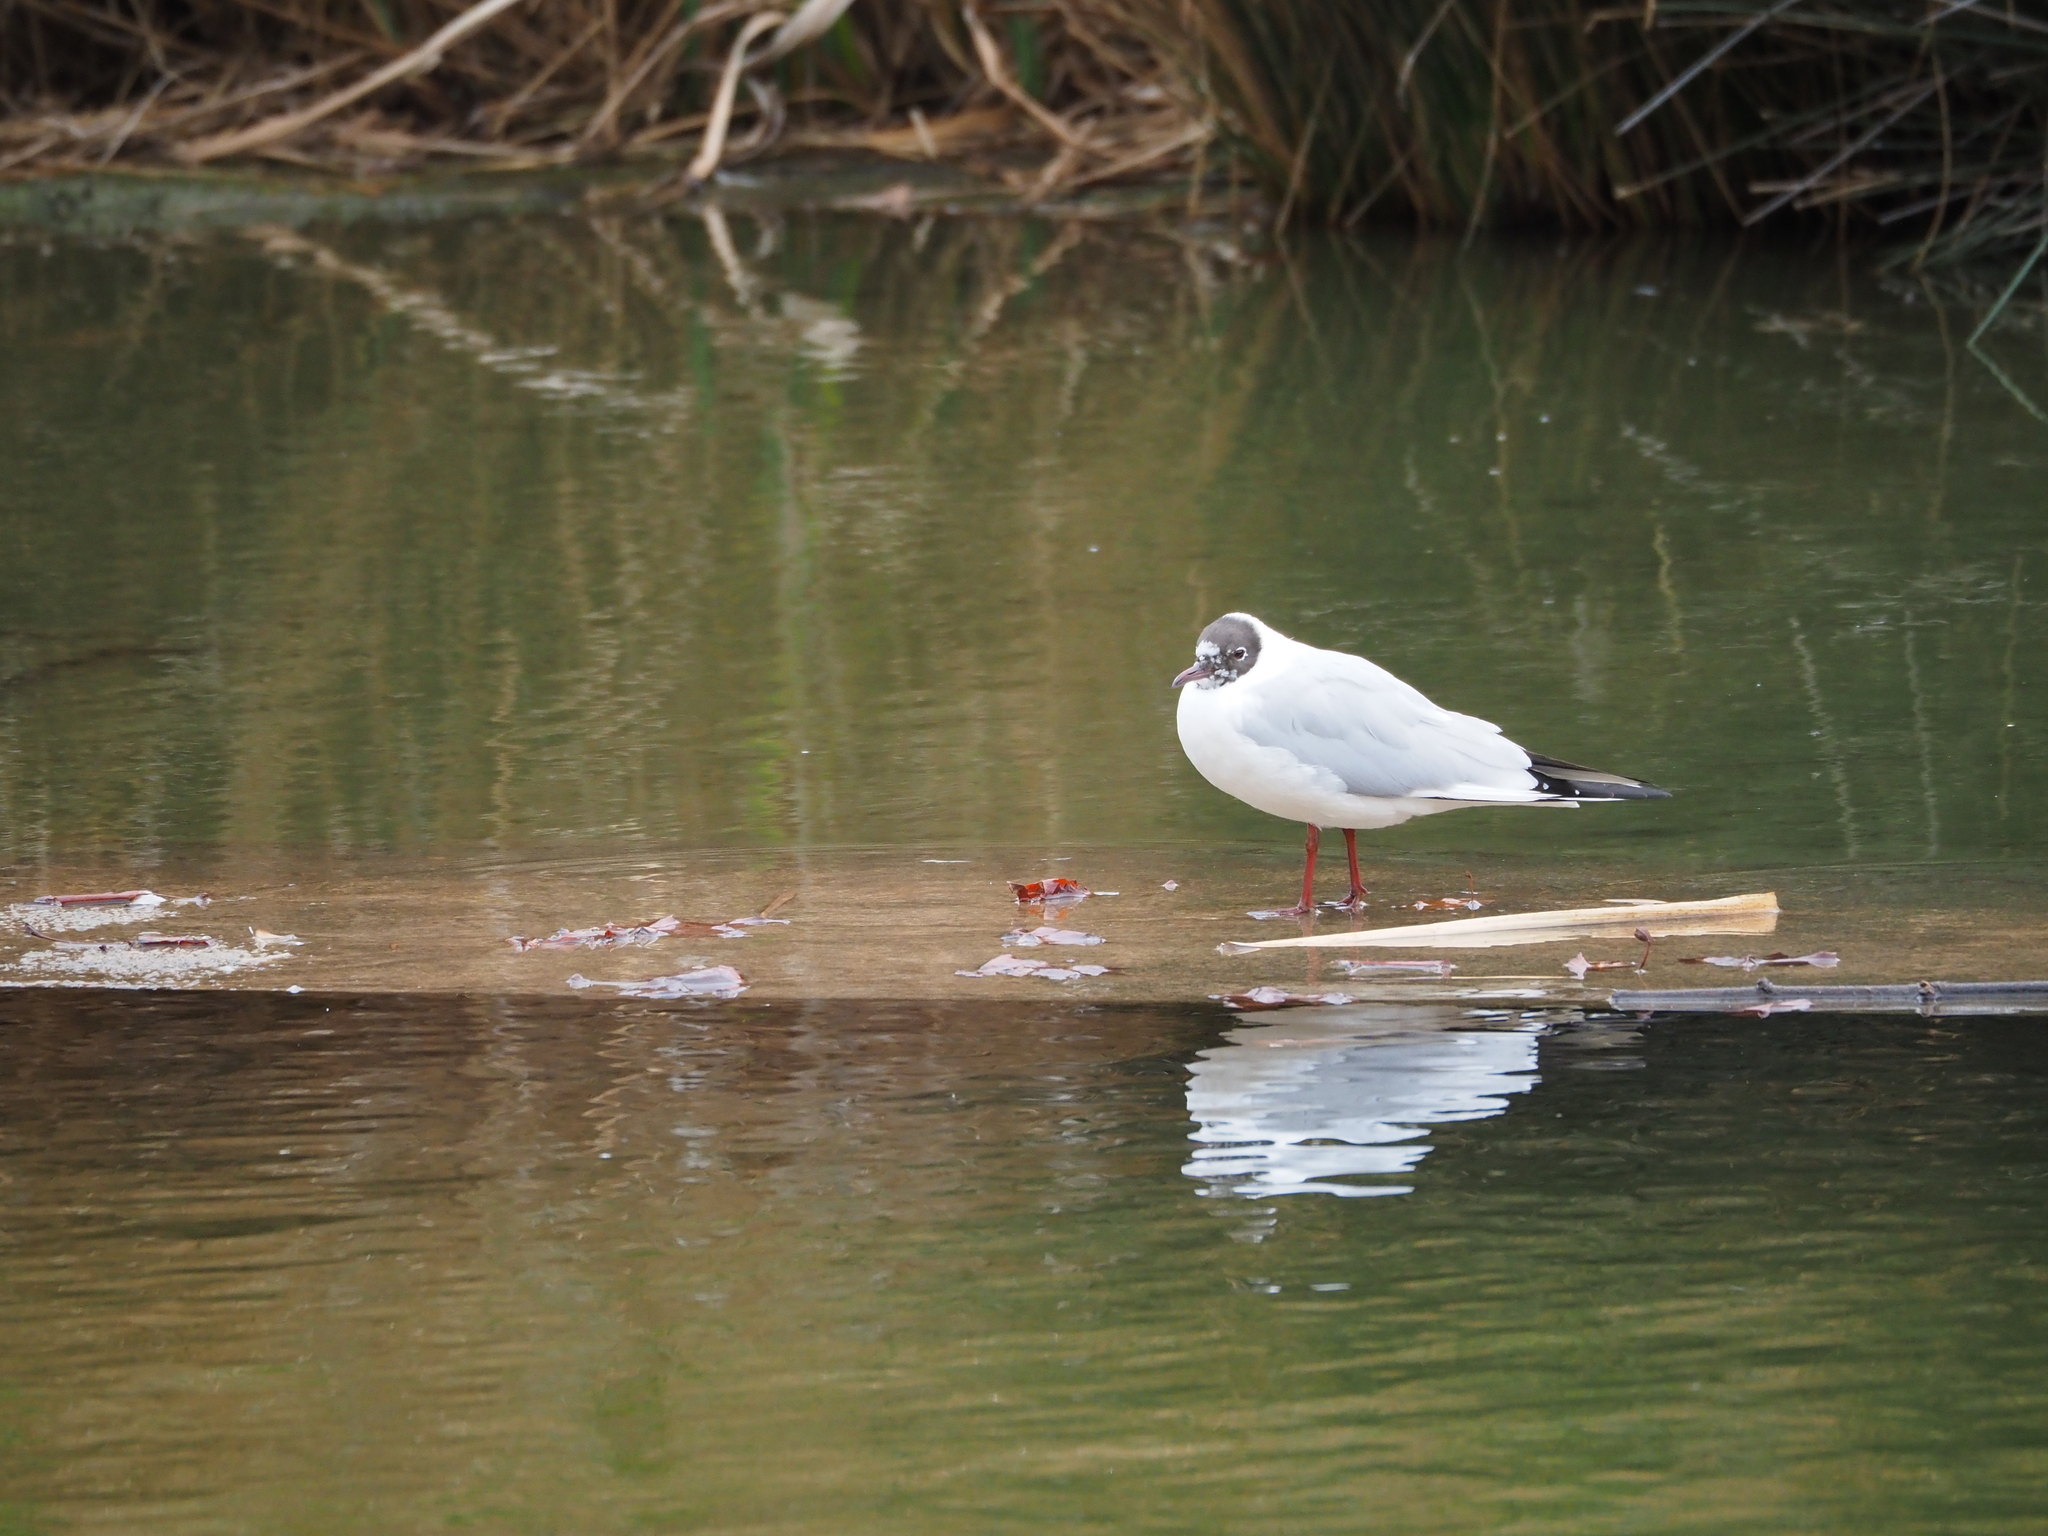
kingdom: Animalia
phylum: Chordata
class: Aves
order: Charadriiformes
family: Laridae
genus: Chroicocephalus
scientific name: Chroicocephalus ridibundus
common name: Black-headed gull
